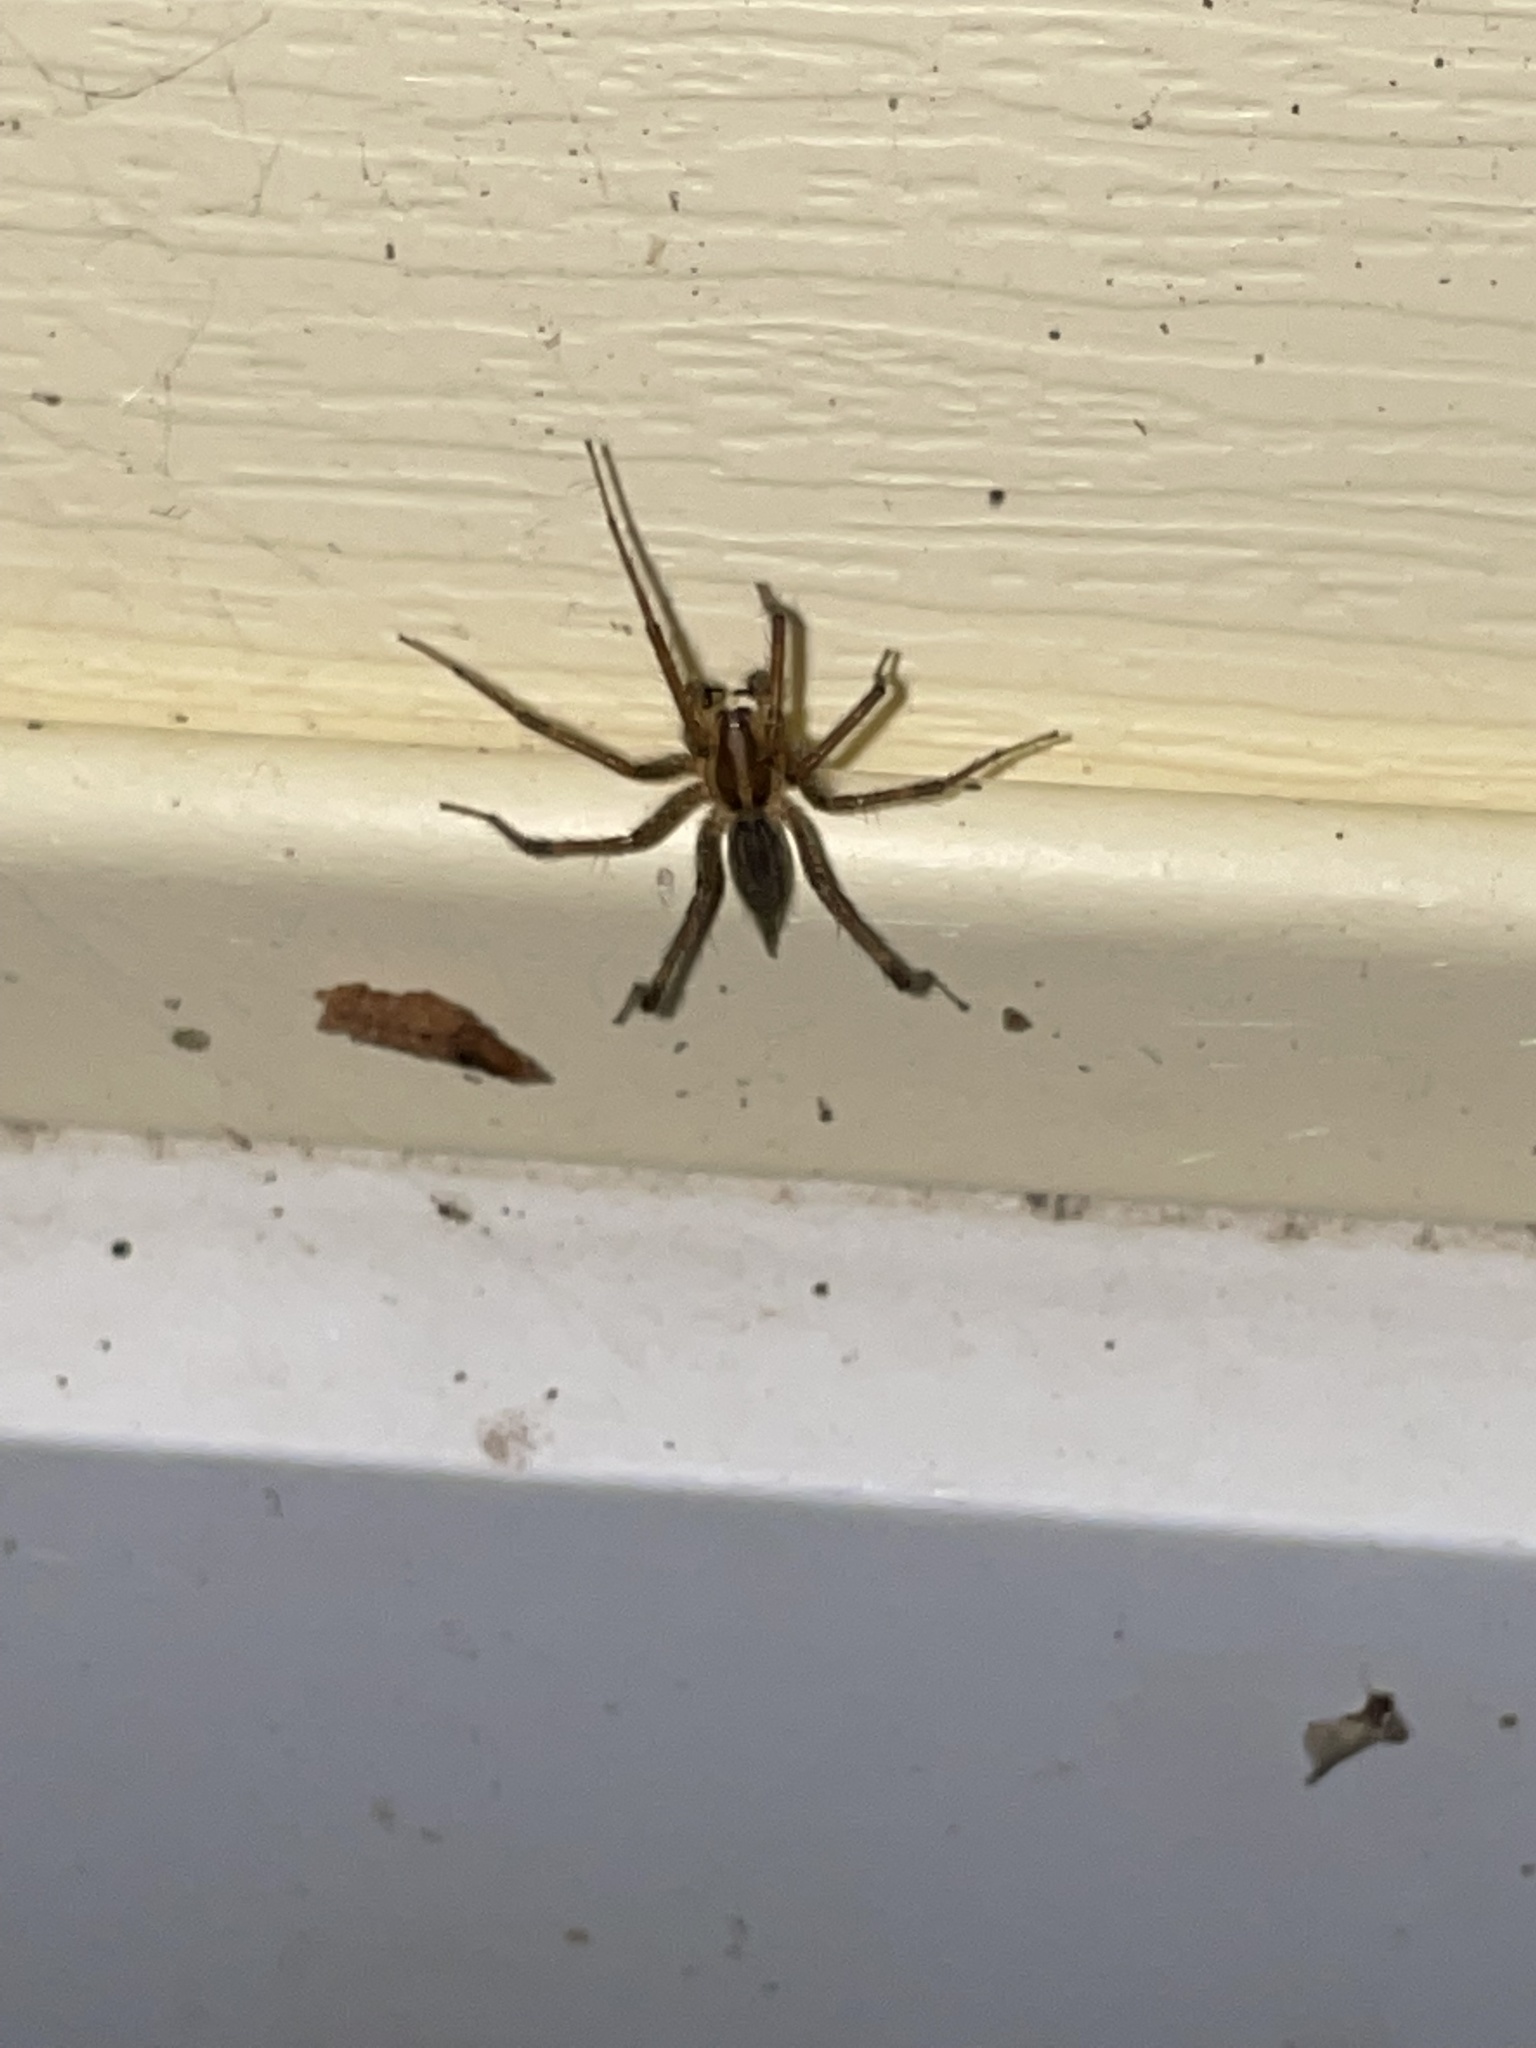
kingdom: Animalia
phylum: Arthropoda
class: Arachnida
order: Araneae
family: Agelenidae
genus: Agelenopsis
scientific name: Agelenopsis
